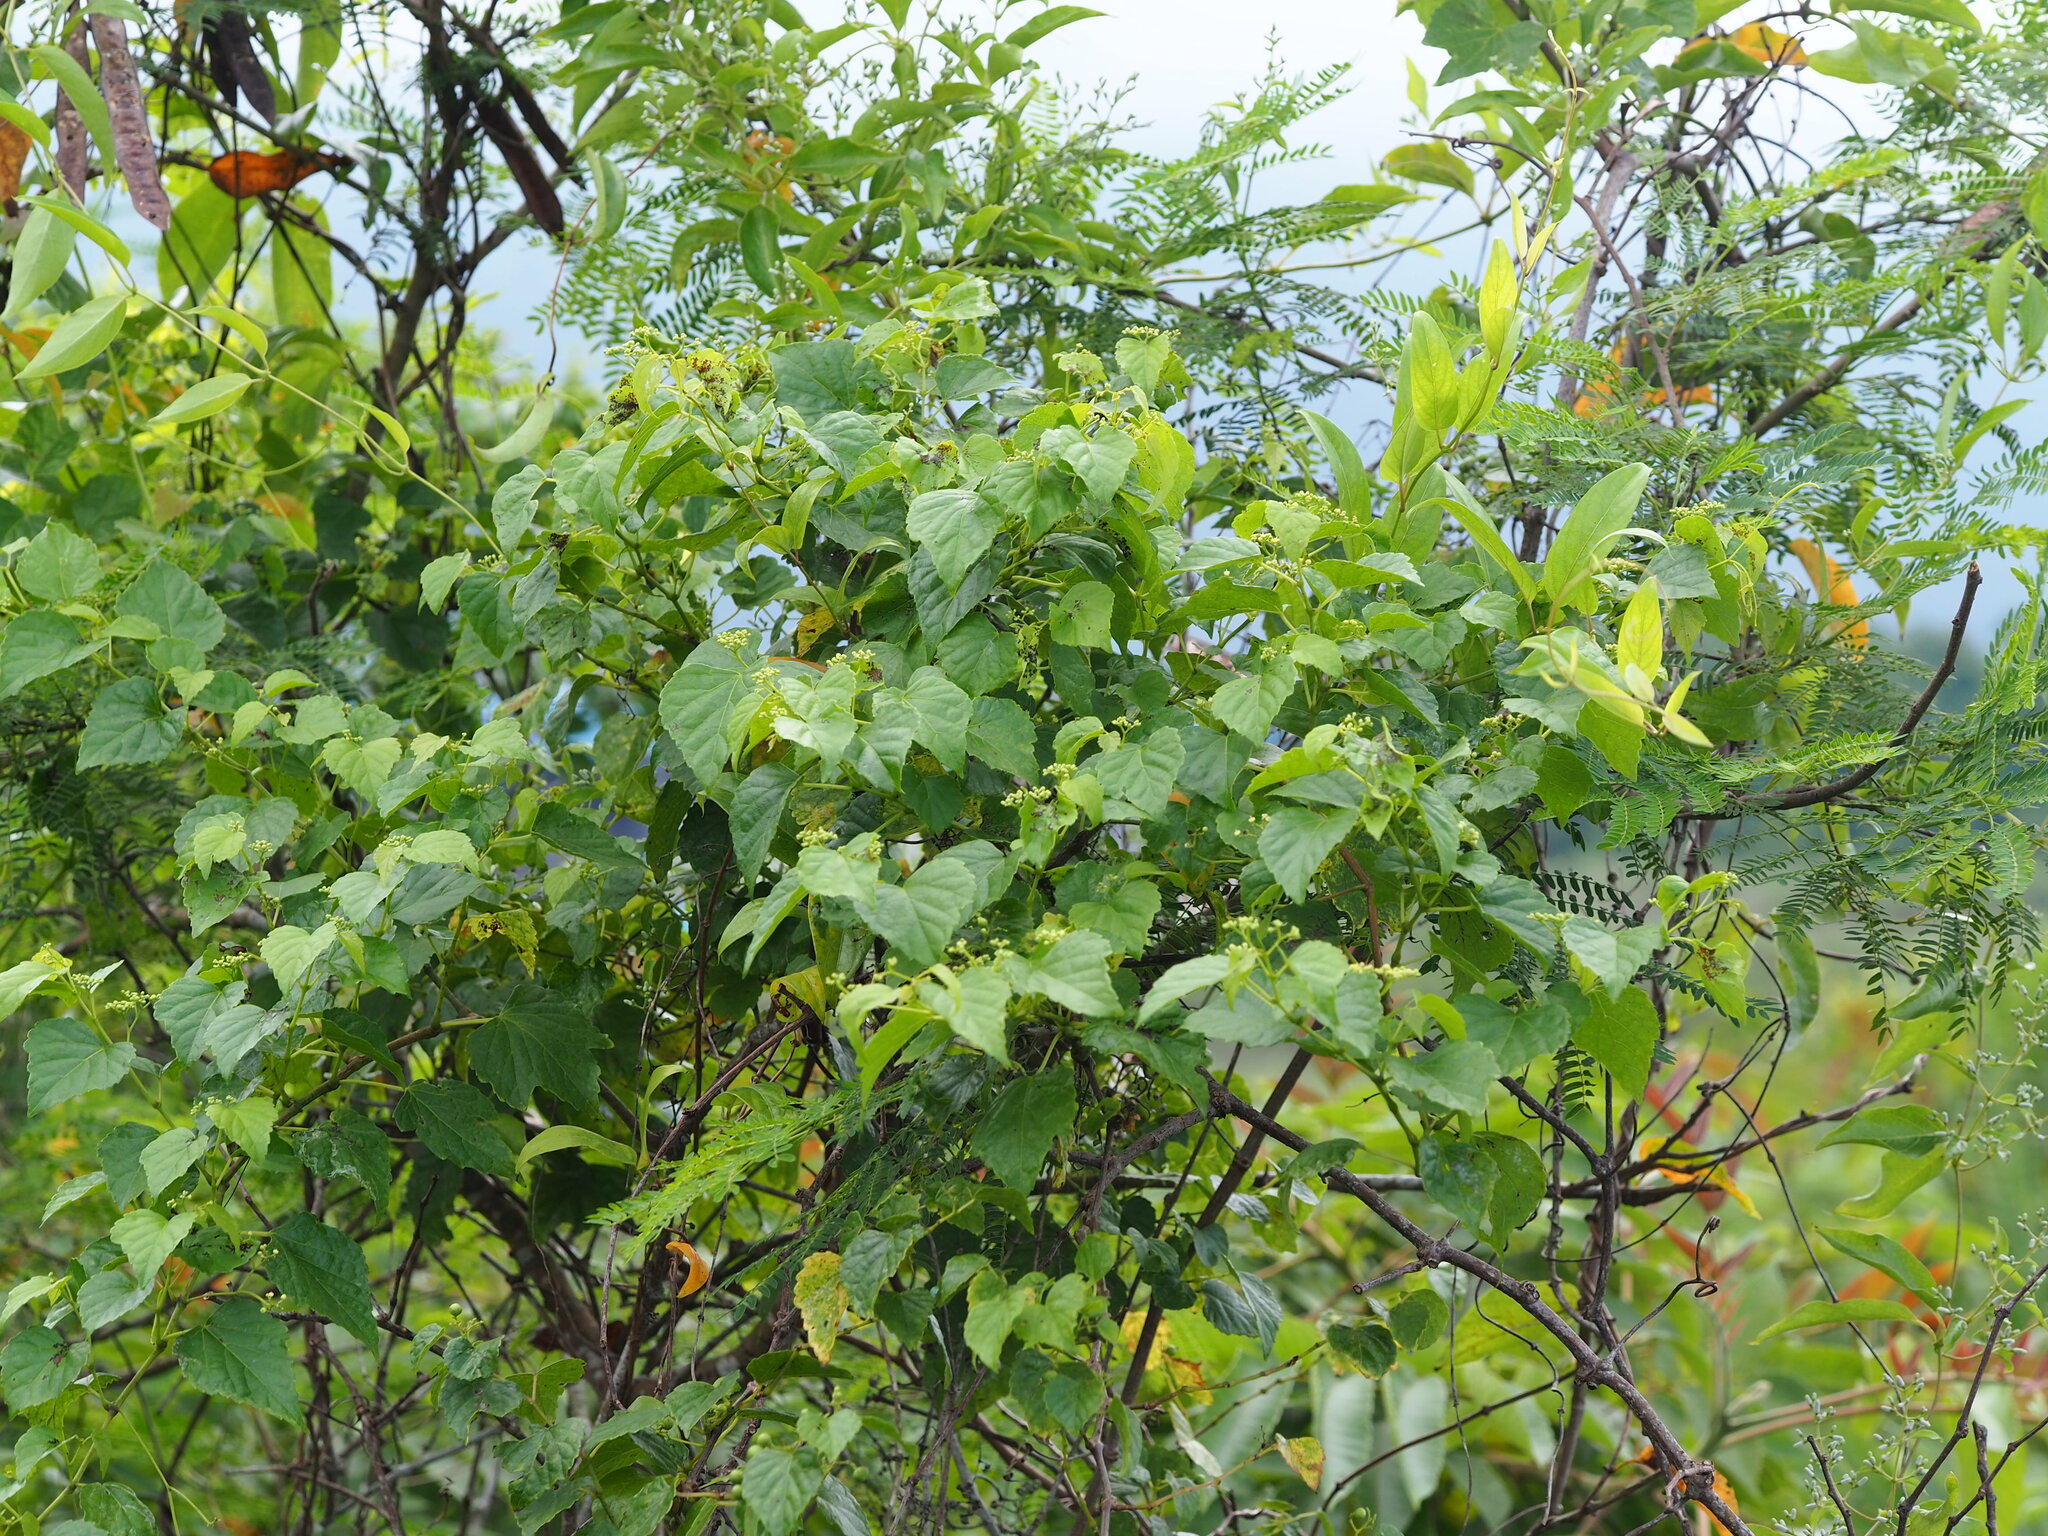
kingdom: Plantae
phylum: Tracheophyta
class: Magnoliopsida
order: Vitales
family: Vitaceae
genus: Ampelopsis
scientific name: Ampelopsis glandulosa
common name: Amur peppervine
